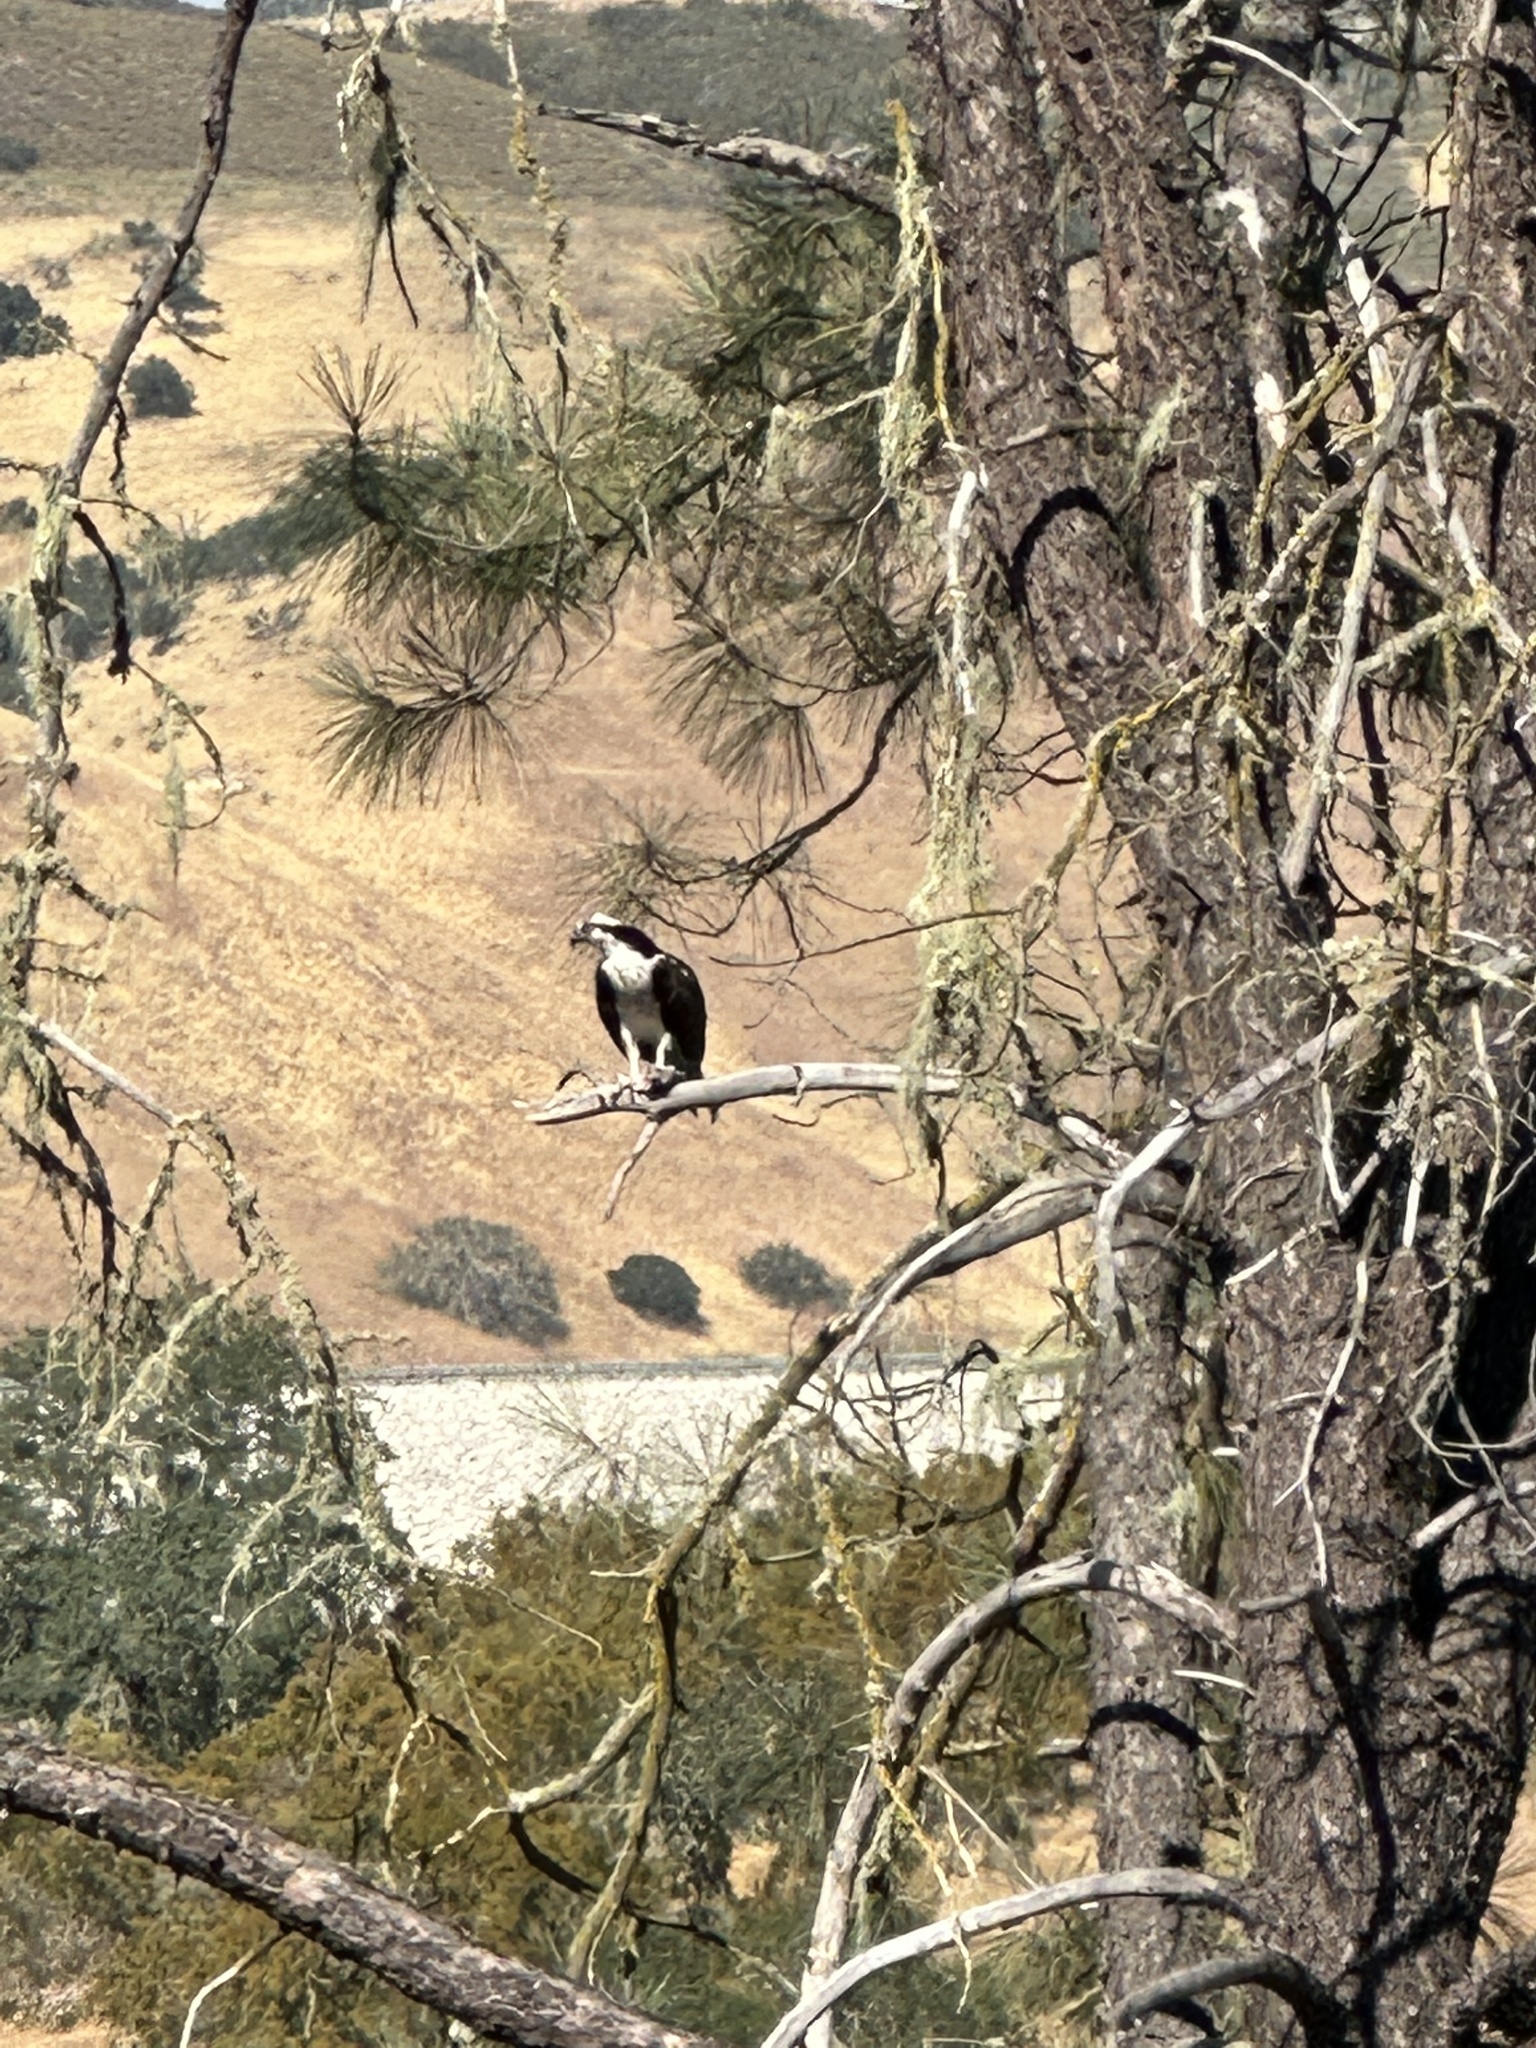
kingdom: Animalia
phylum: Chordata
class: Aves
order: Accipitriformes
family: Pandionidae
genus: Pandion
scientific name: Pandion haliaetus
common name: Osprey
